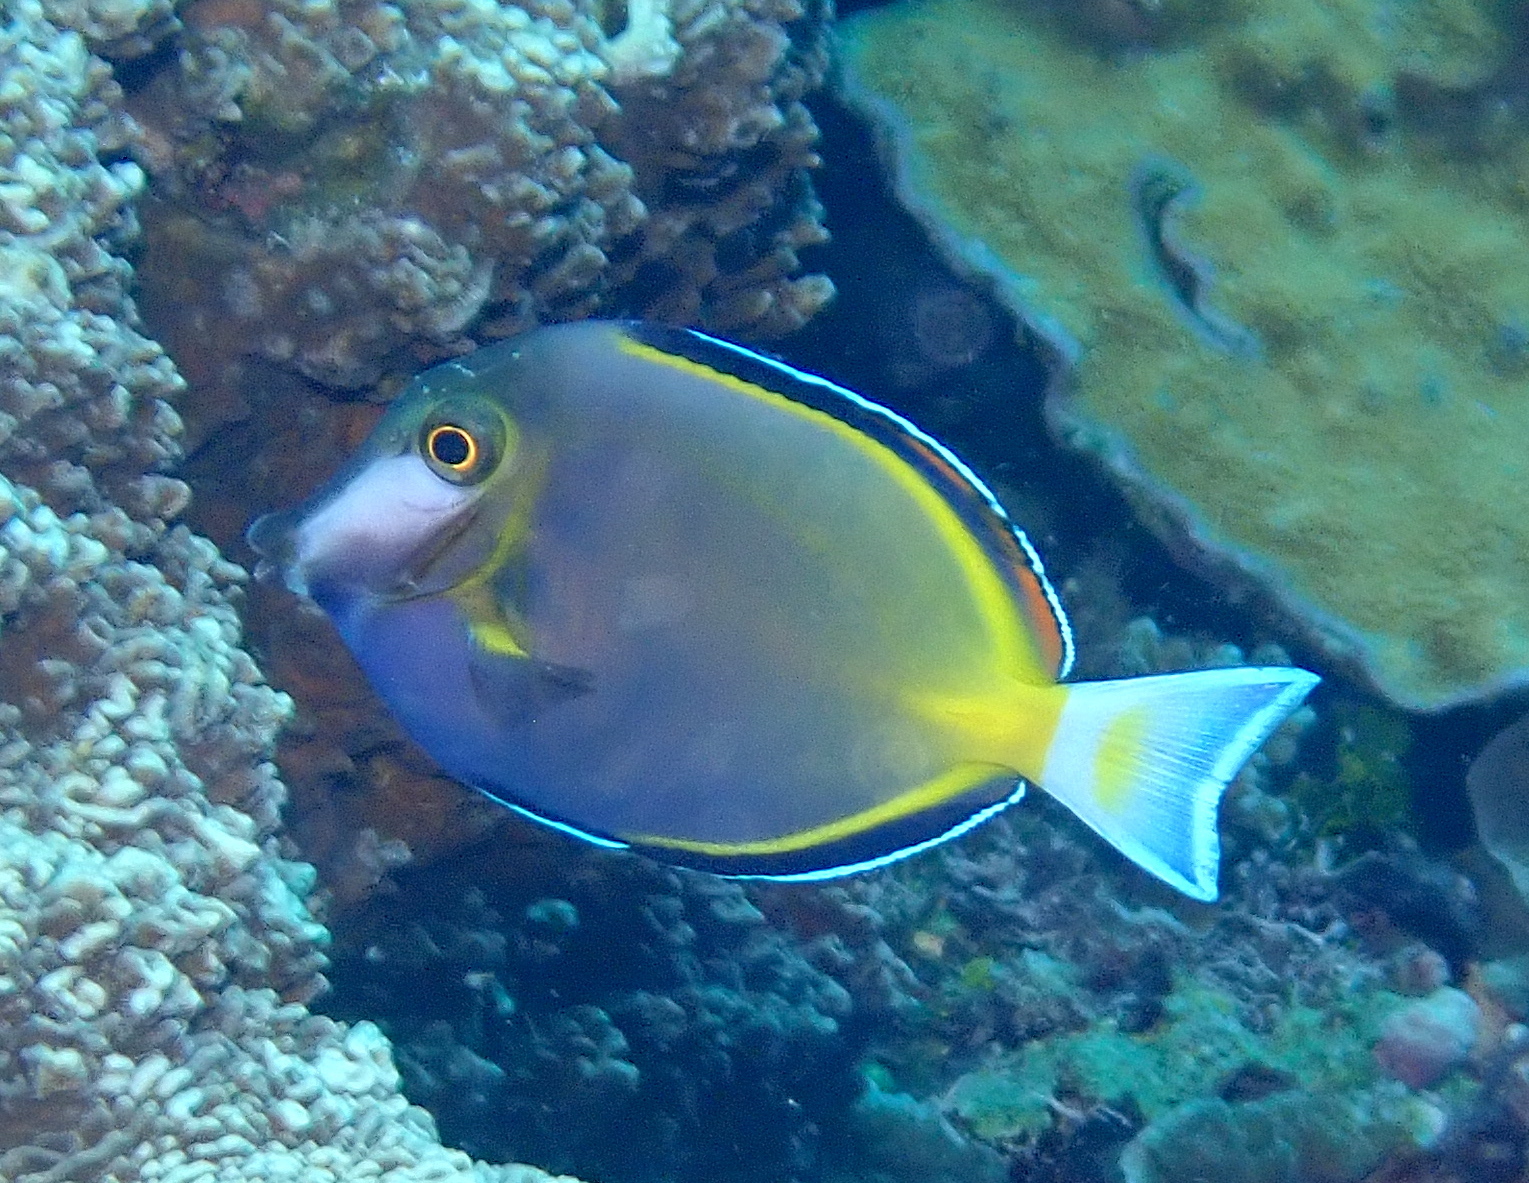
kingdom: Animalia
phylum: Chordata
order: Perciformes
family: Acanthuridae
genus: Acanthurus
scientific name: Acanthurus nigricans
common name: Whitecheek surgeonfish
